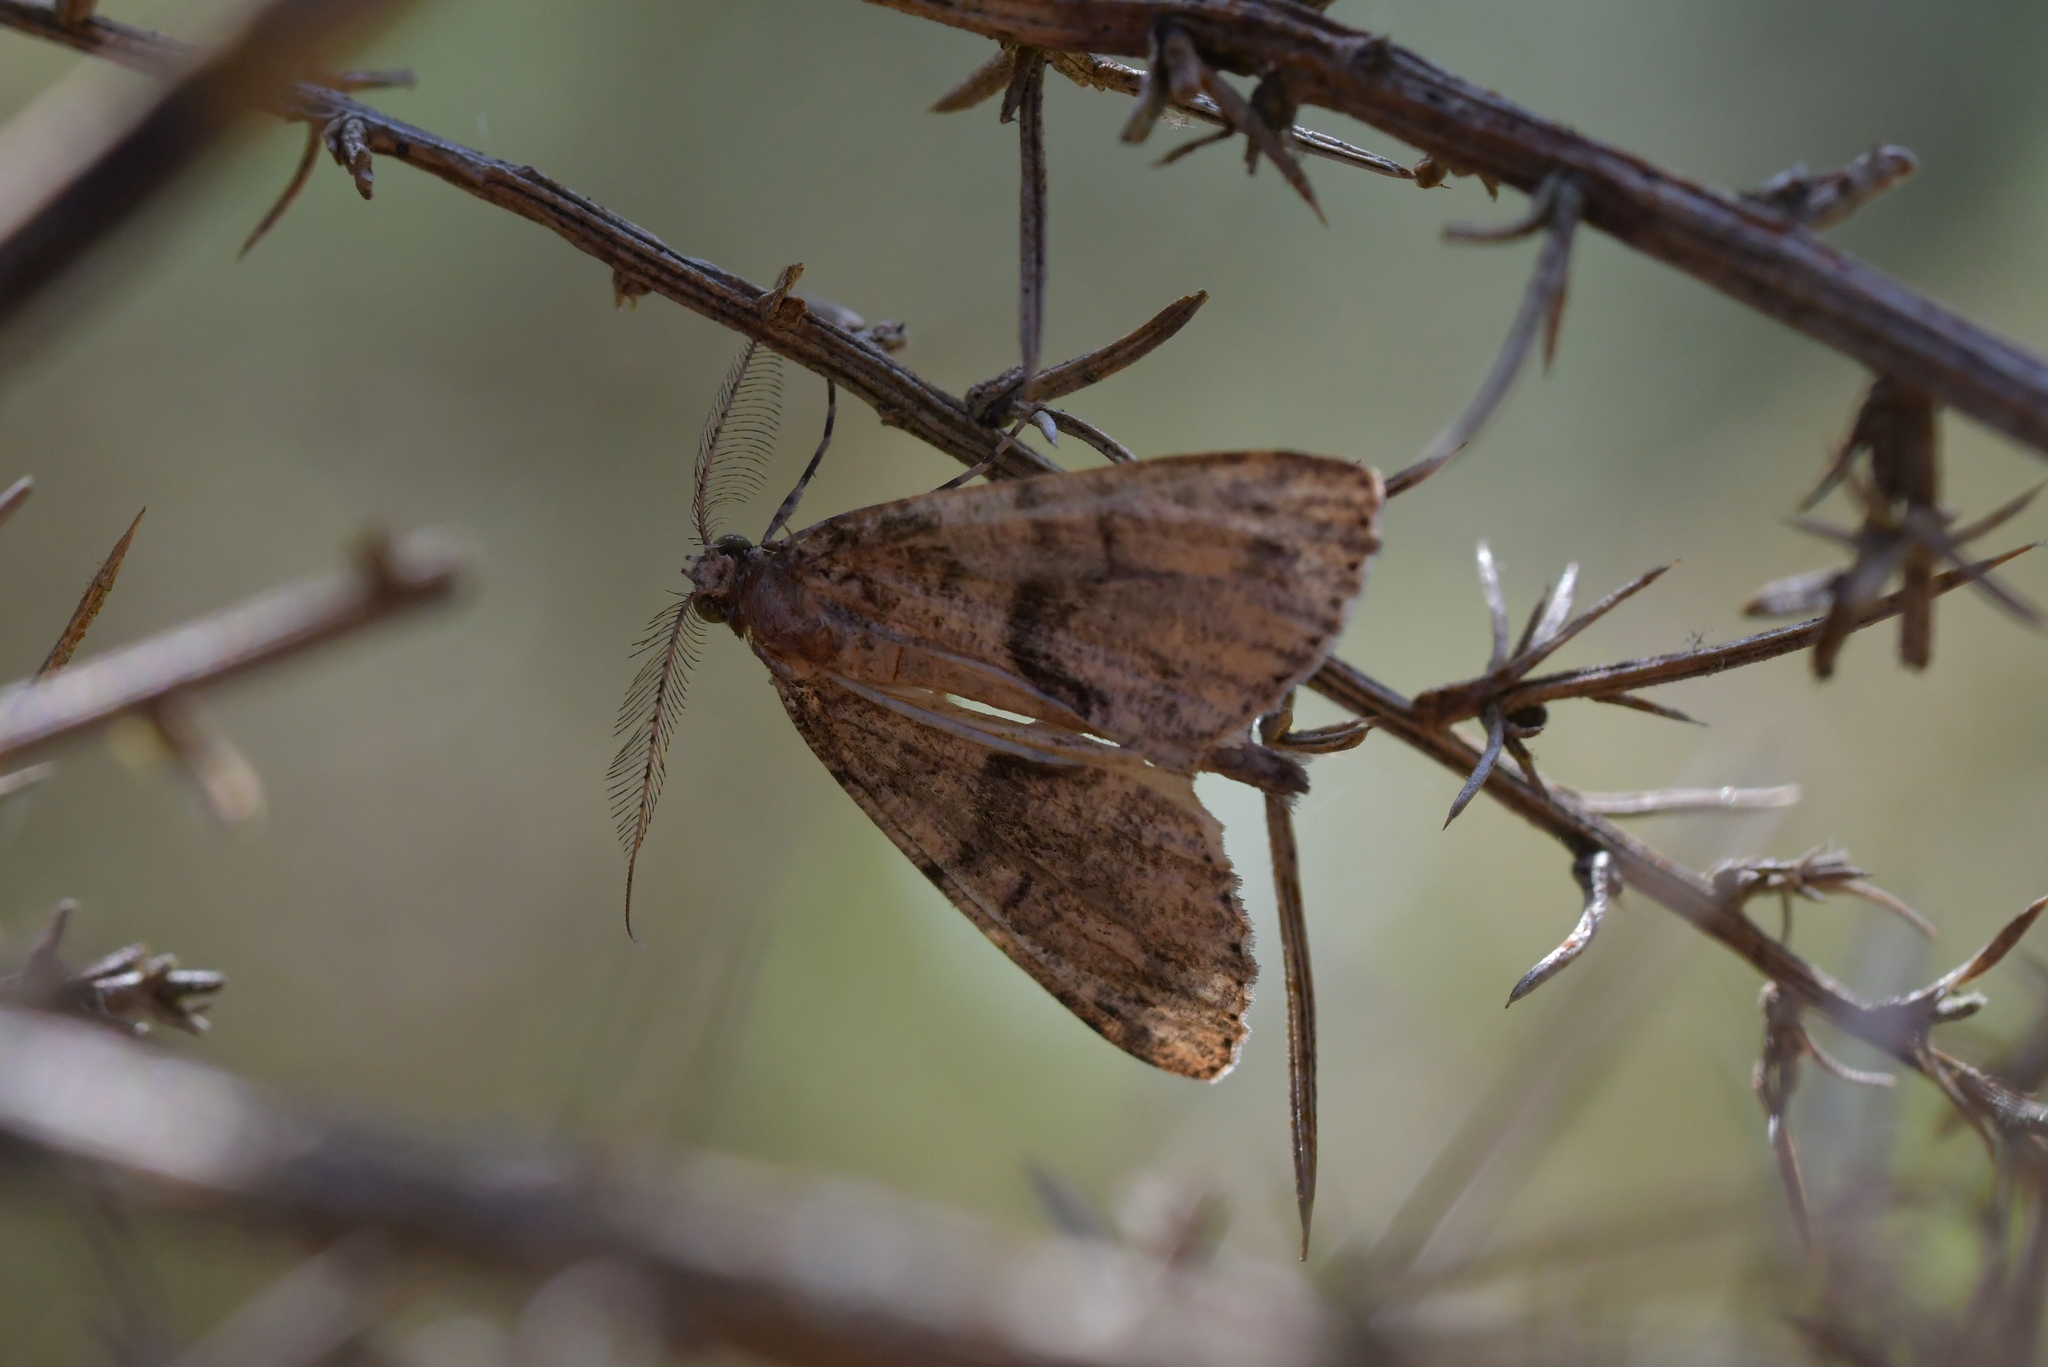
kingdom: Animalia
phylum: Arthropoda
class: Insecta
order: Lepidoptera
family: Geometridae
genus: Pseudocoremia
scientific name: Pseudocoremia suavis
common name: Common forest looper
